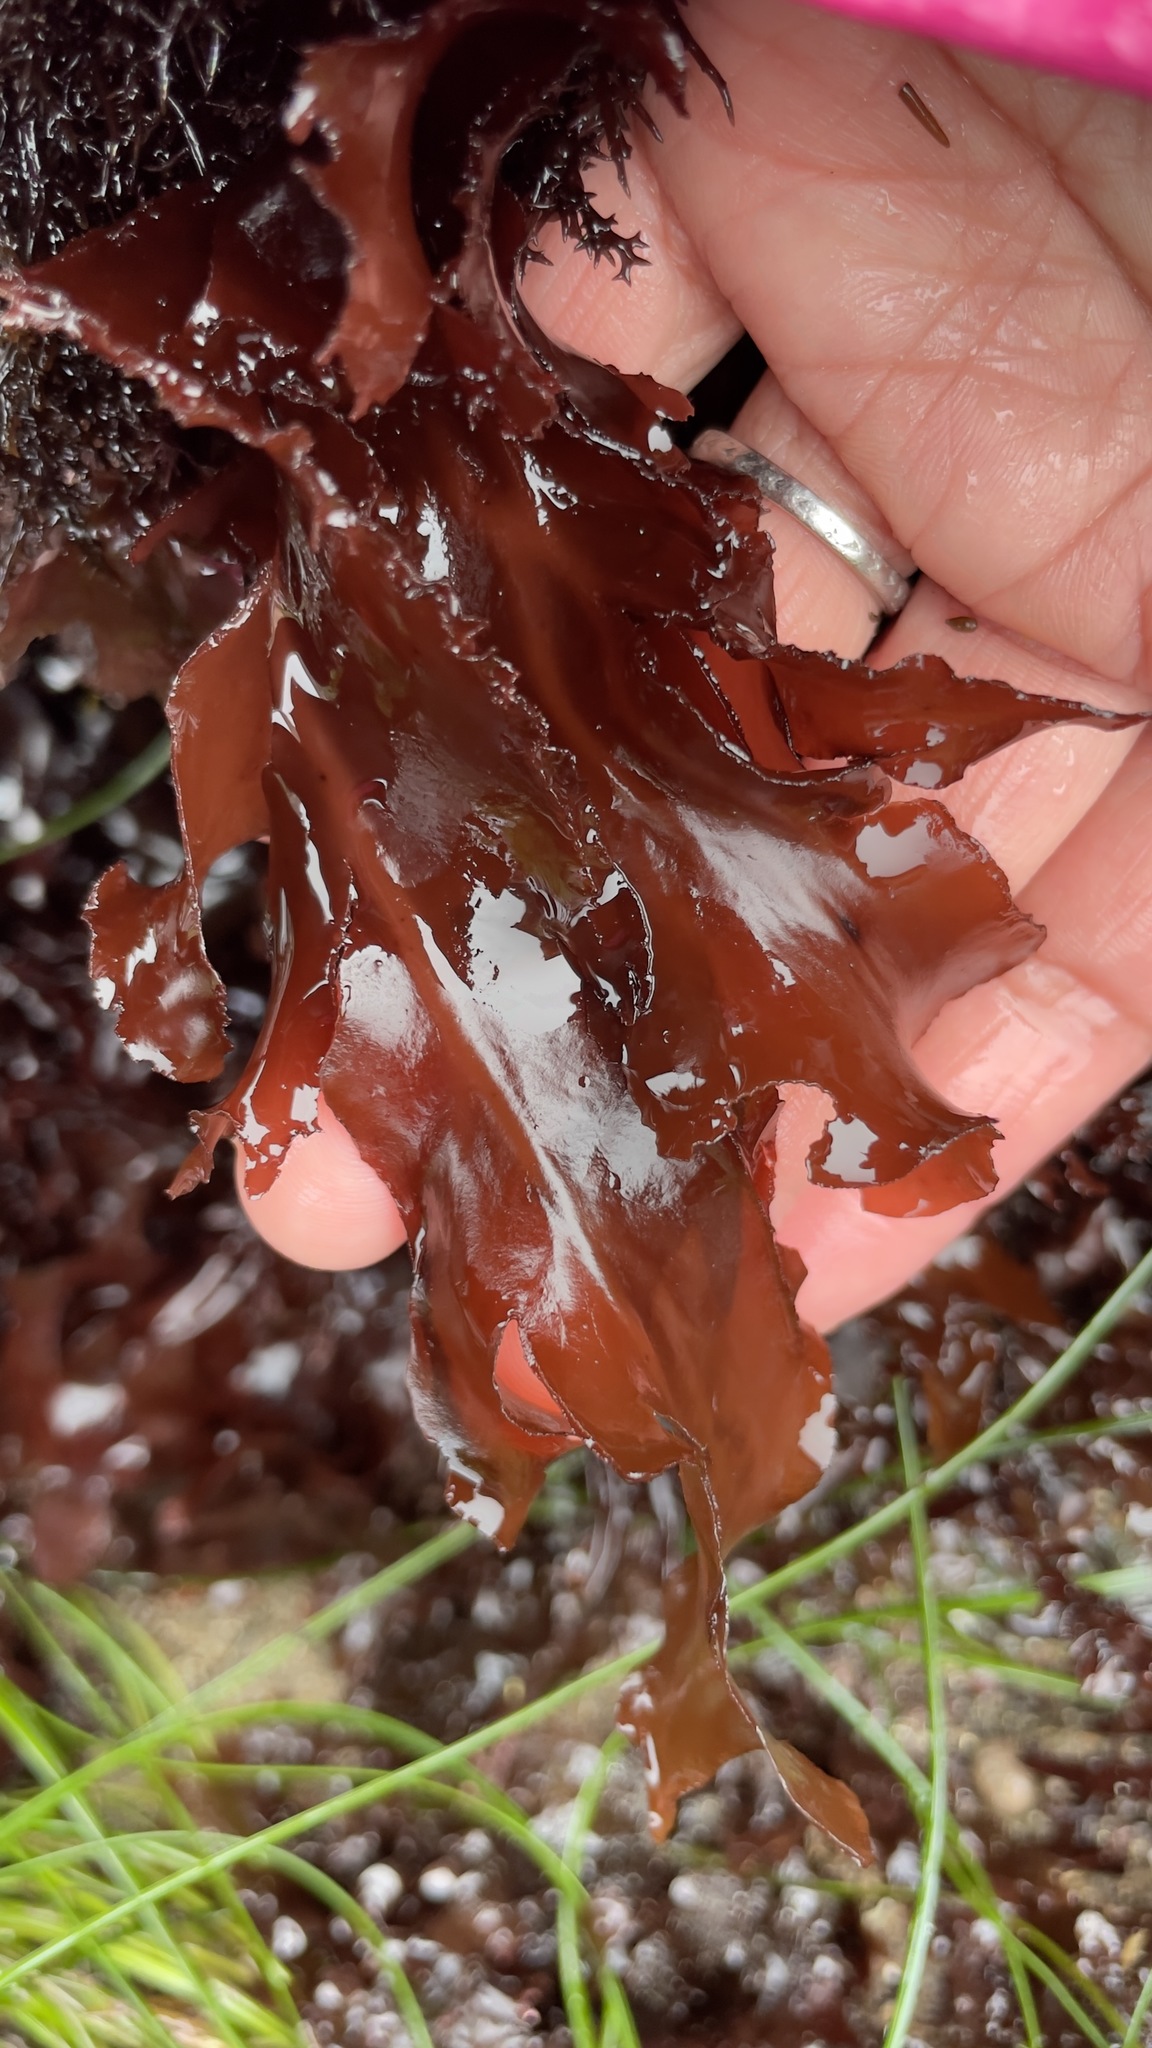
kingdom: Plantae
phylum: Rhodophyta
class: Florideophyceae
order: Gigartinales
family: Kallymeniaceae
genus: Erythrophyllum
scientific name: Erythrophyllum delesserioides
